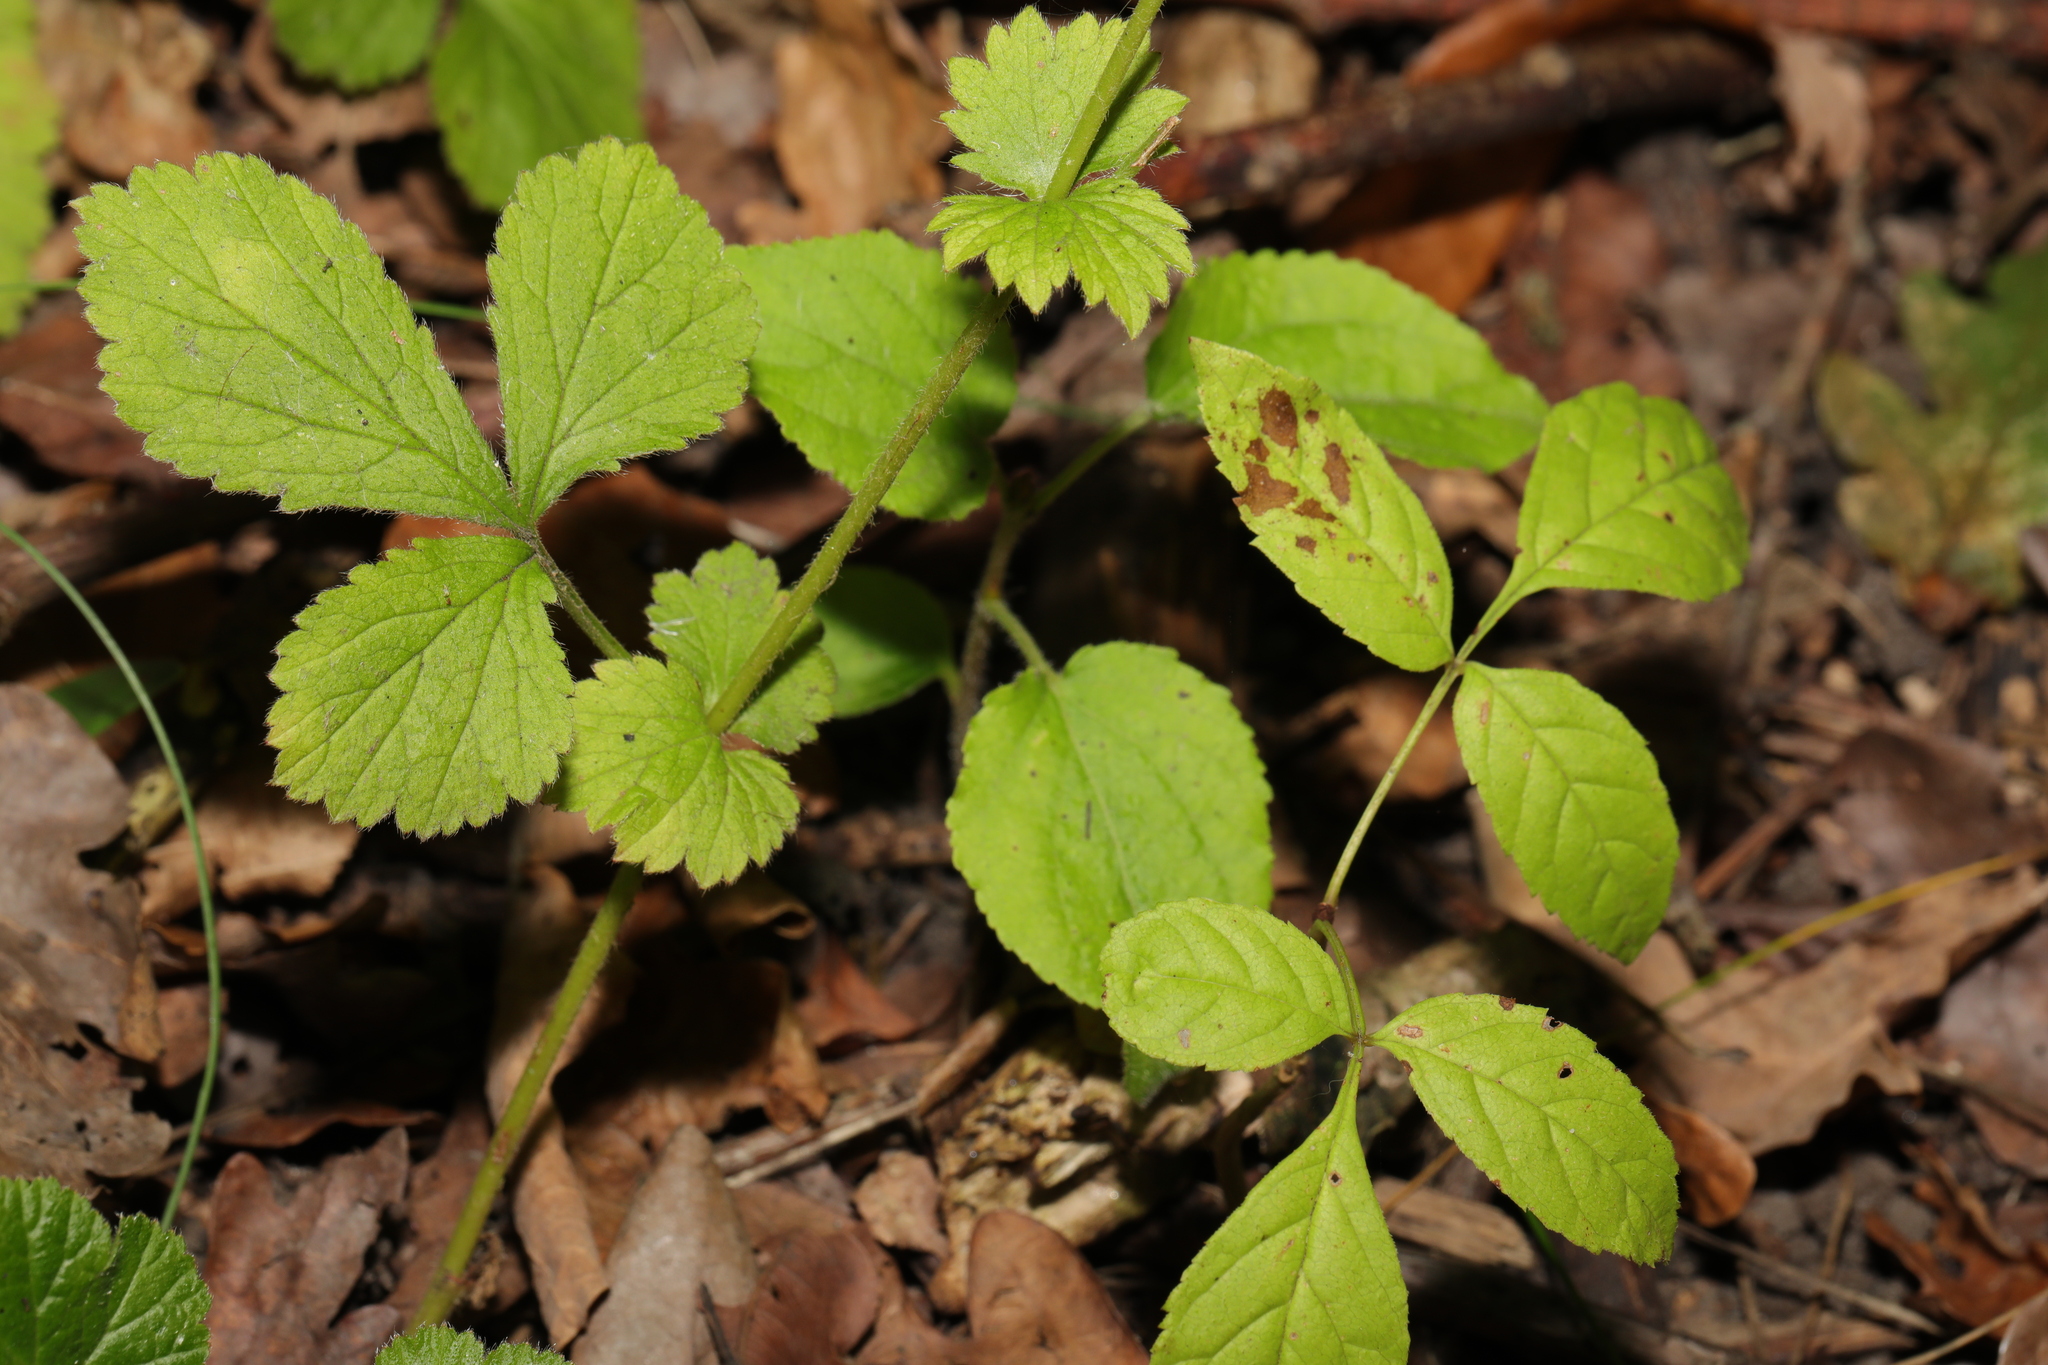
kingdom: Plantae
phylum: Tracheophyta
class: Magnoliopsida
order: Rosales
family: Rosaceae
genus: Geum
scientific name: Geum urbanum
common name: Wood avens
